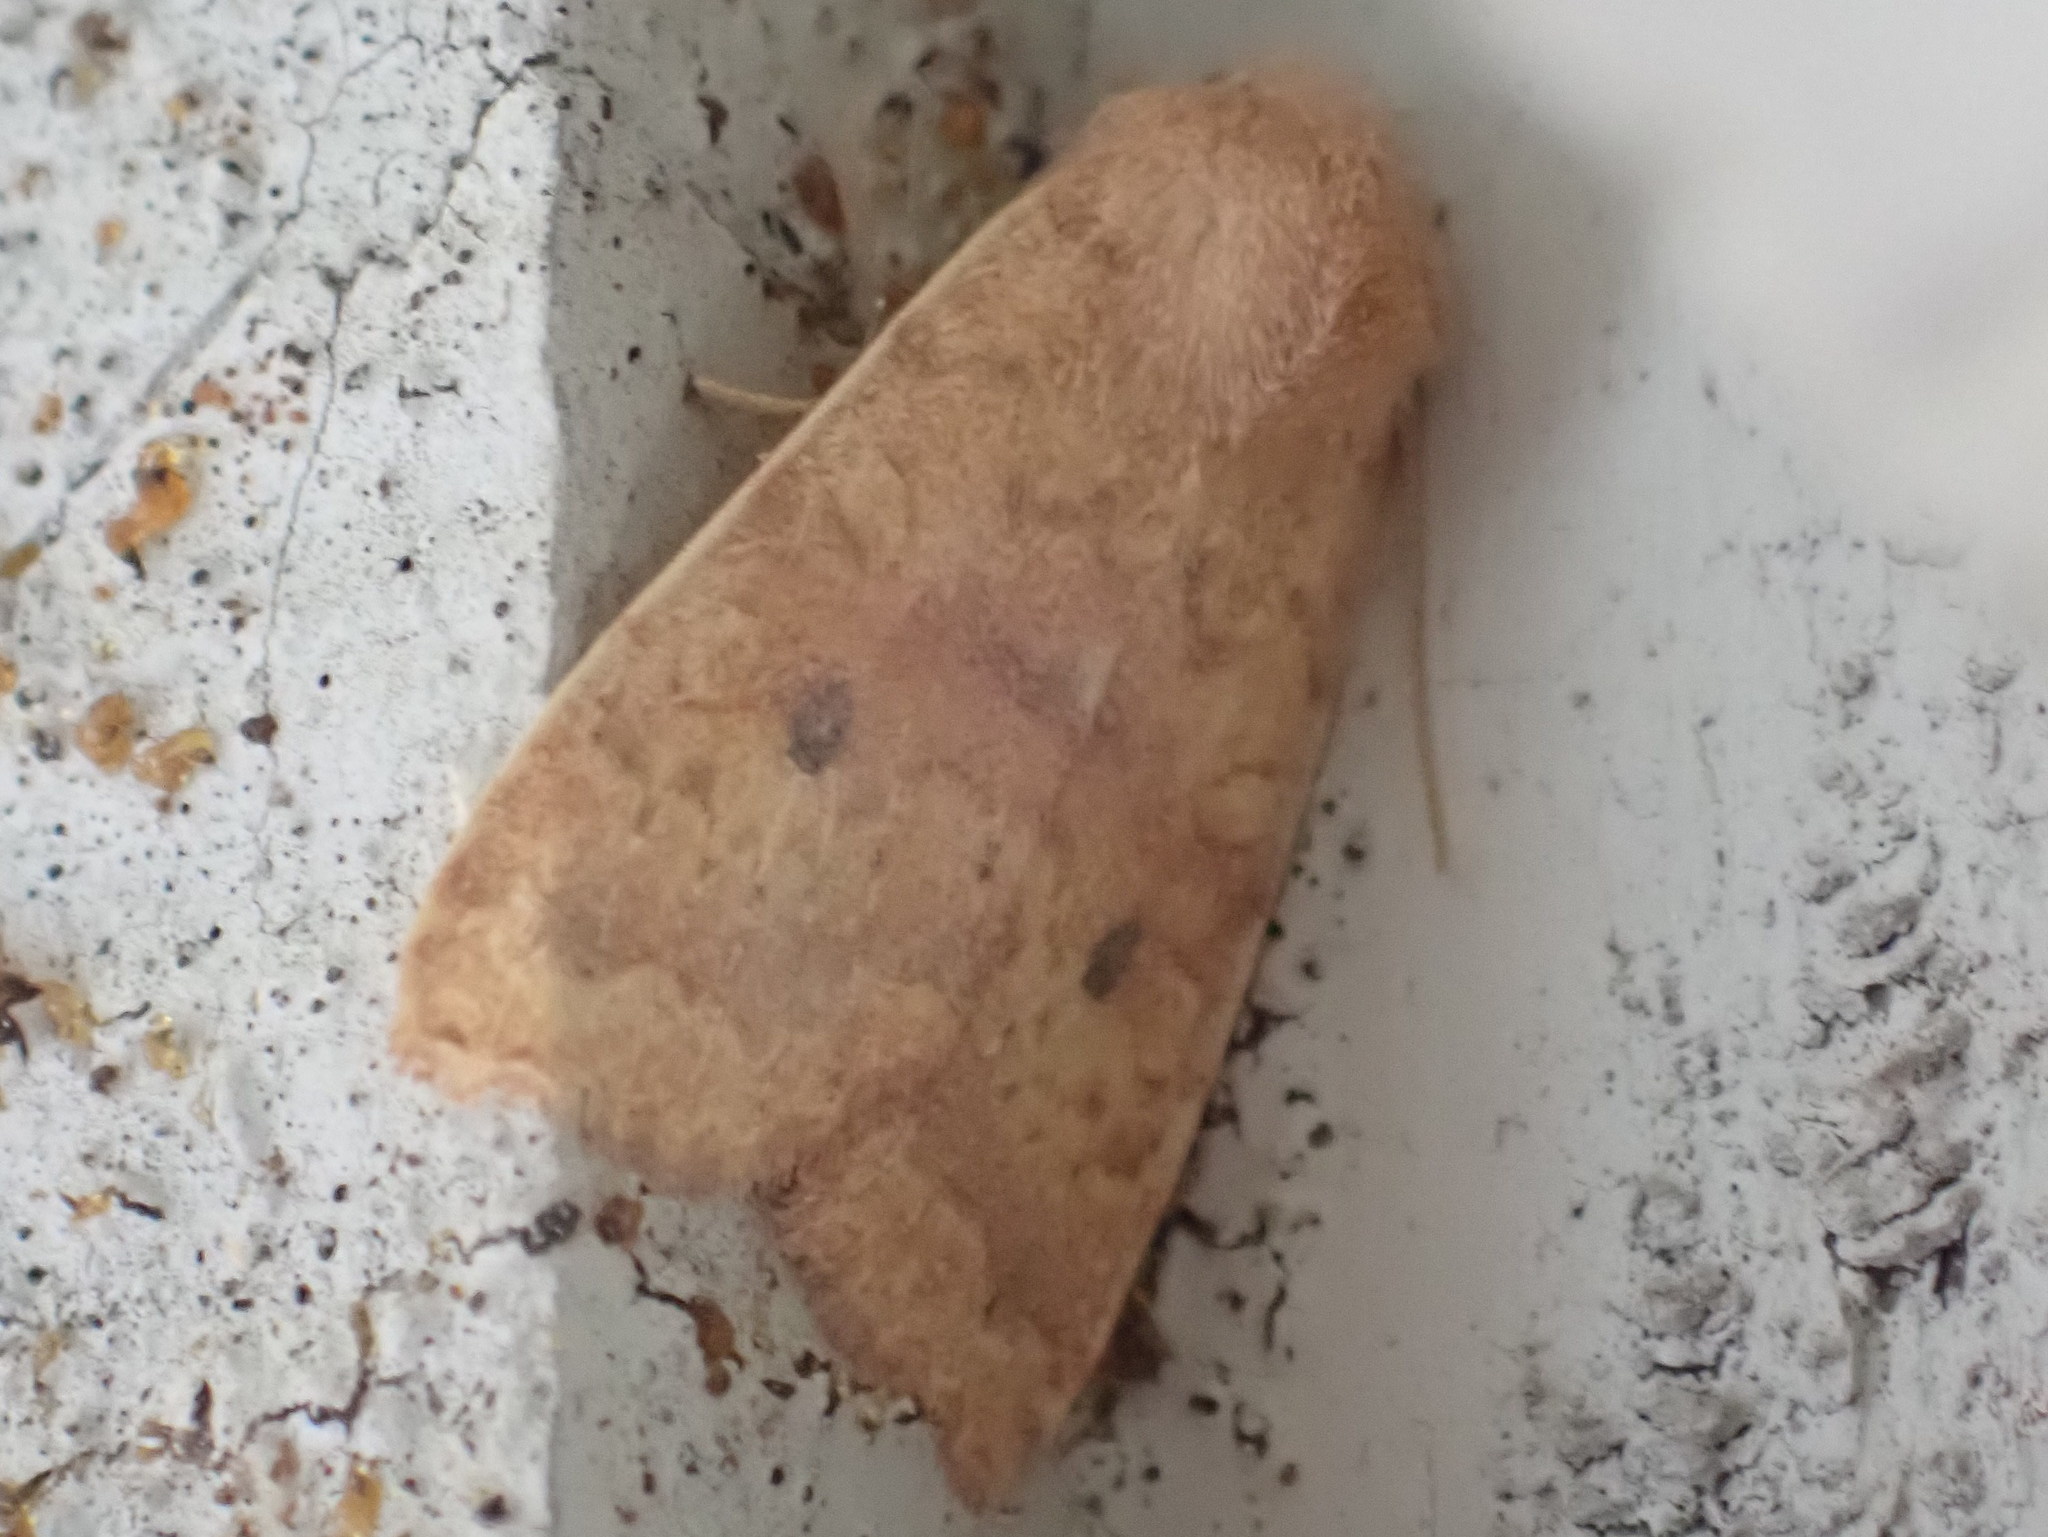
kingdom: Animalia
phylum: Arthropoda
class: Insecta
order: Lepidoptera
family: Noctuidae
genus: Agrochola
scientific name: Agrochola bicolorago
